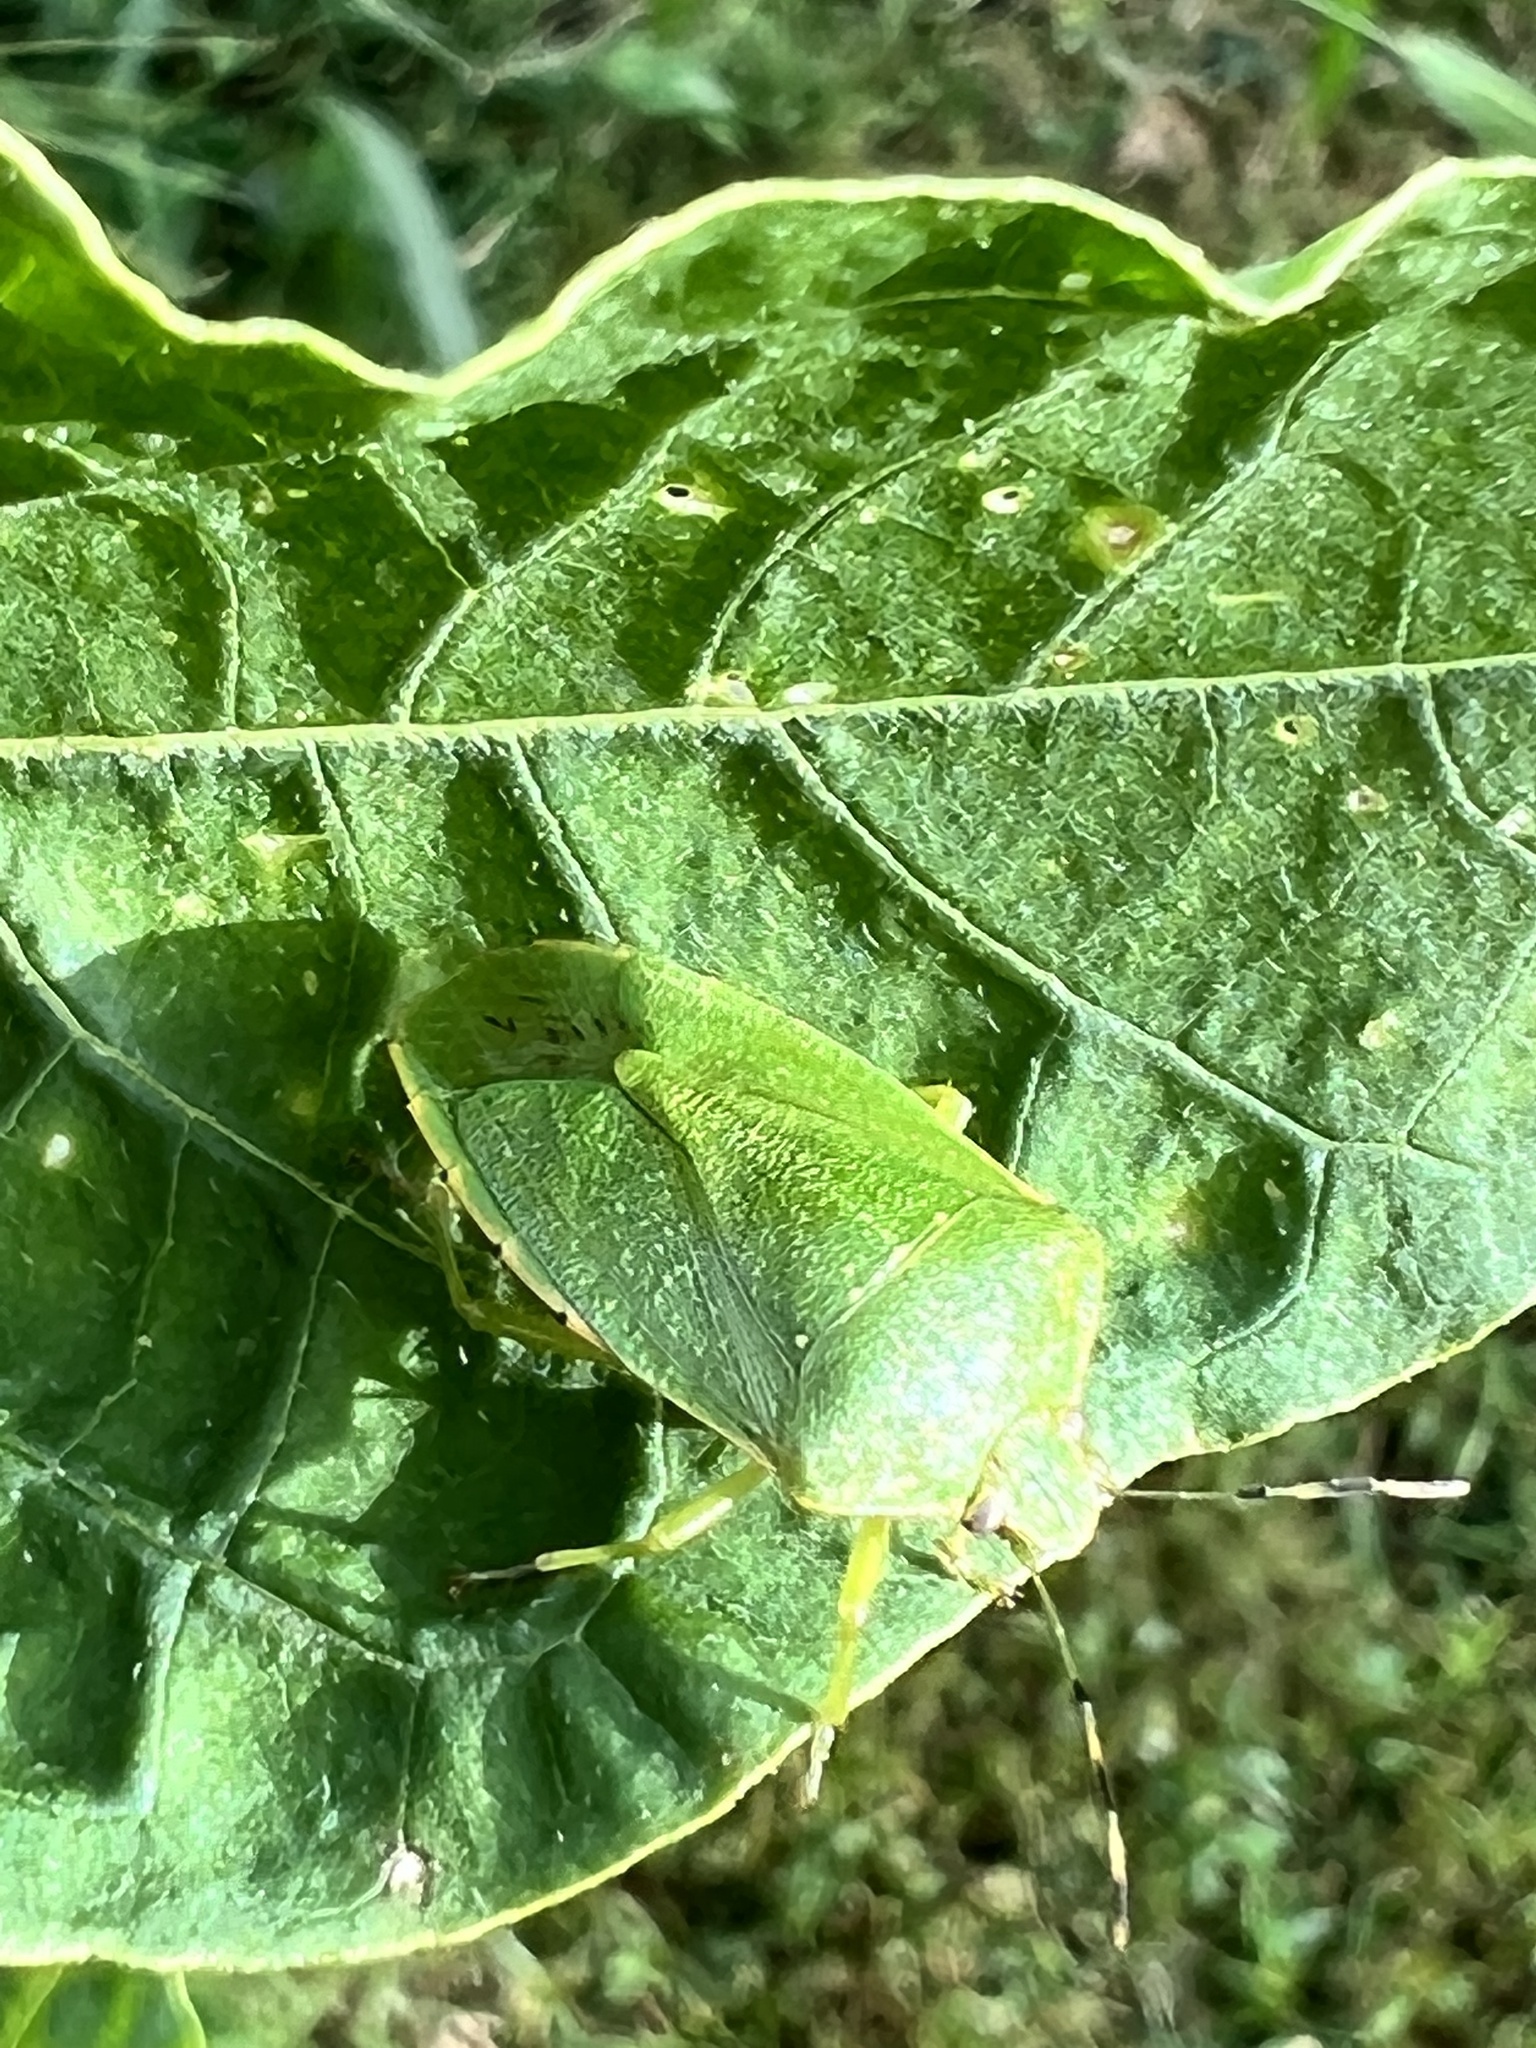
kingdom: Animalia
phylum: Arthropoda
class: Insecta
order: Hemiptera
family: Pentatomidae
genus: Chinavia
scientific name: Chinavia hilaris
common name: Green stink bug
